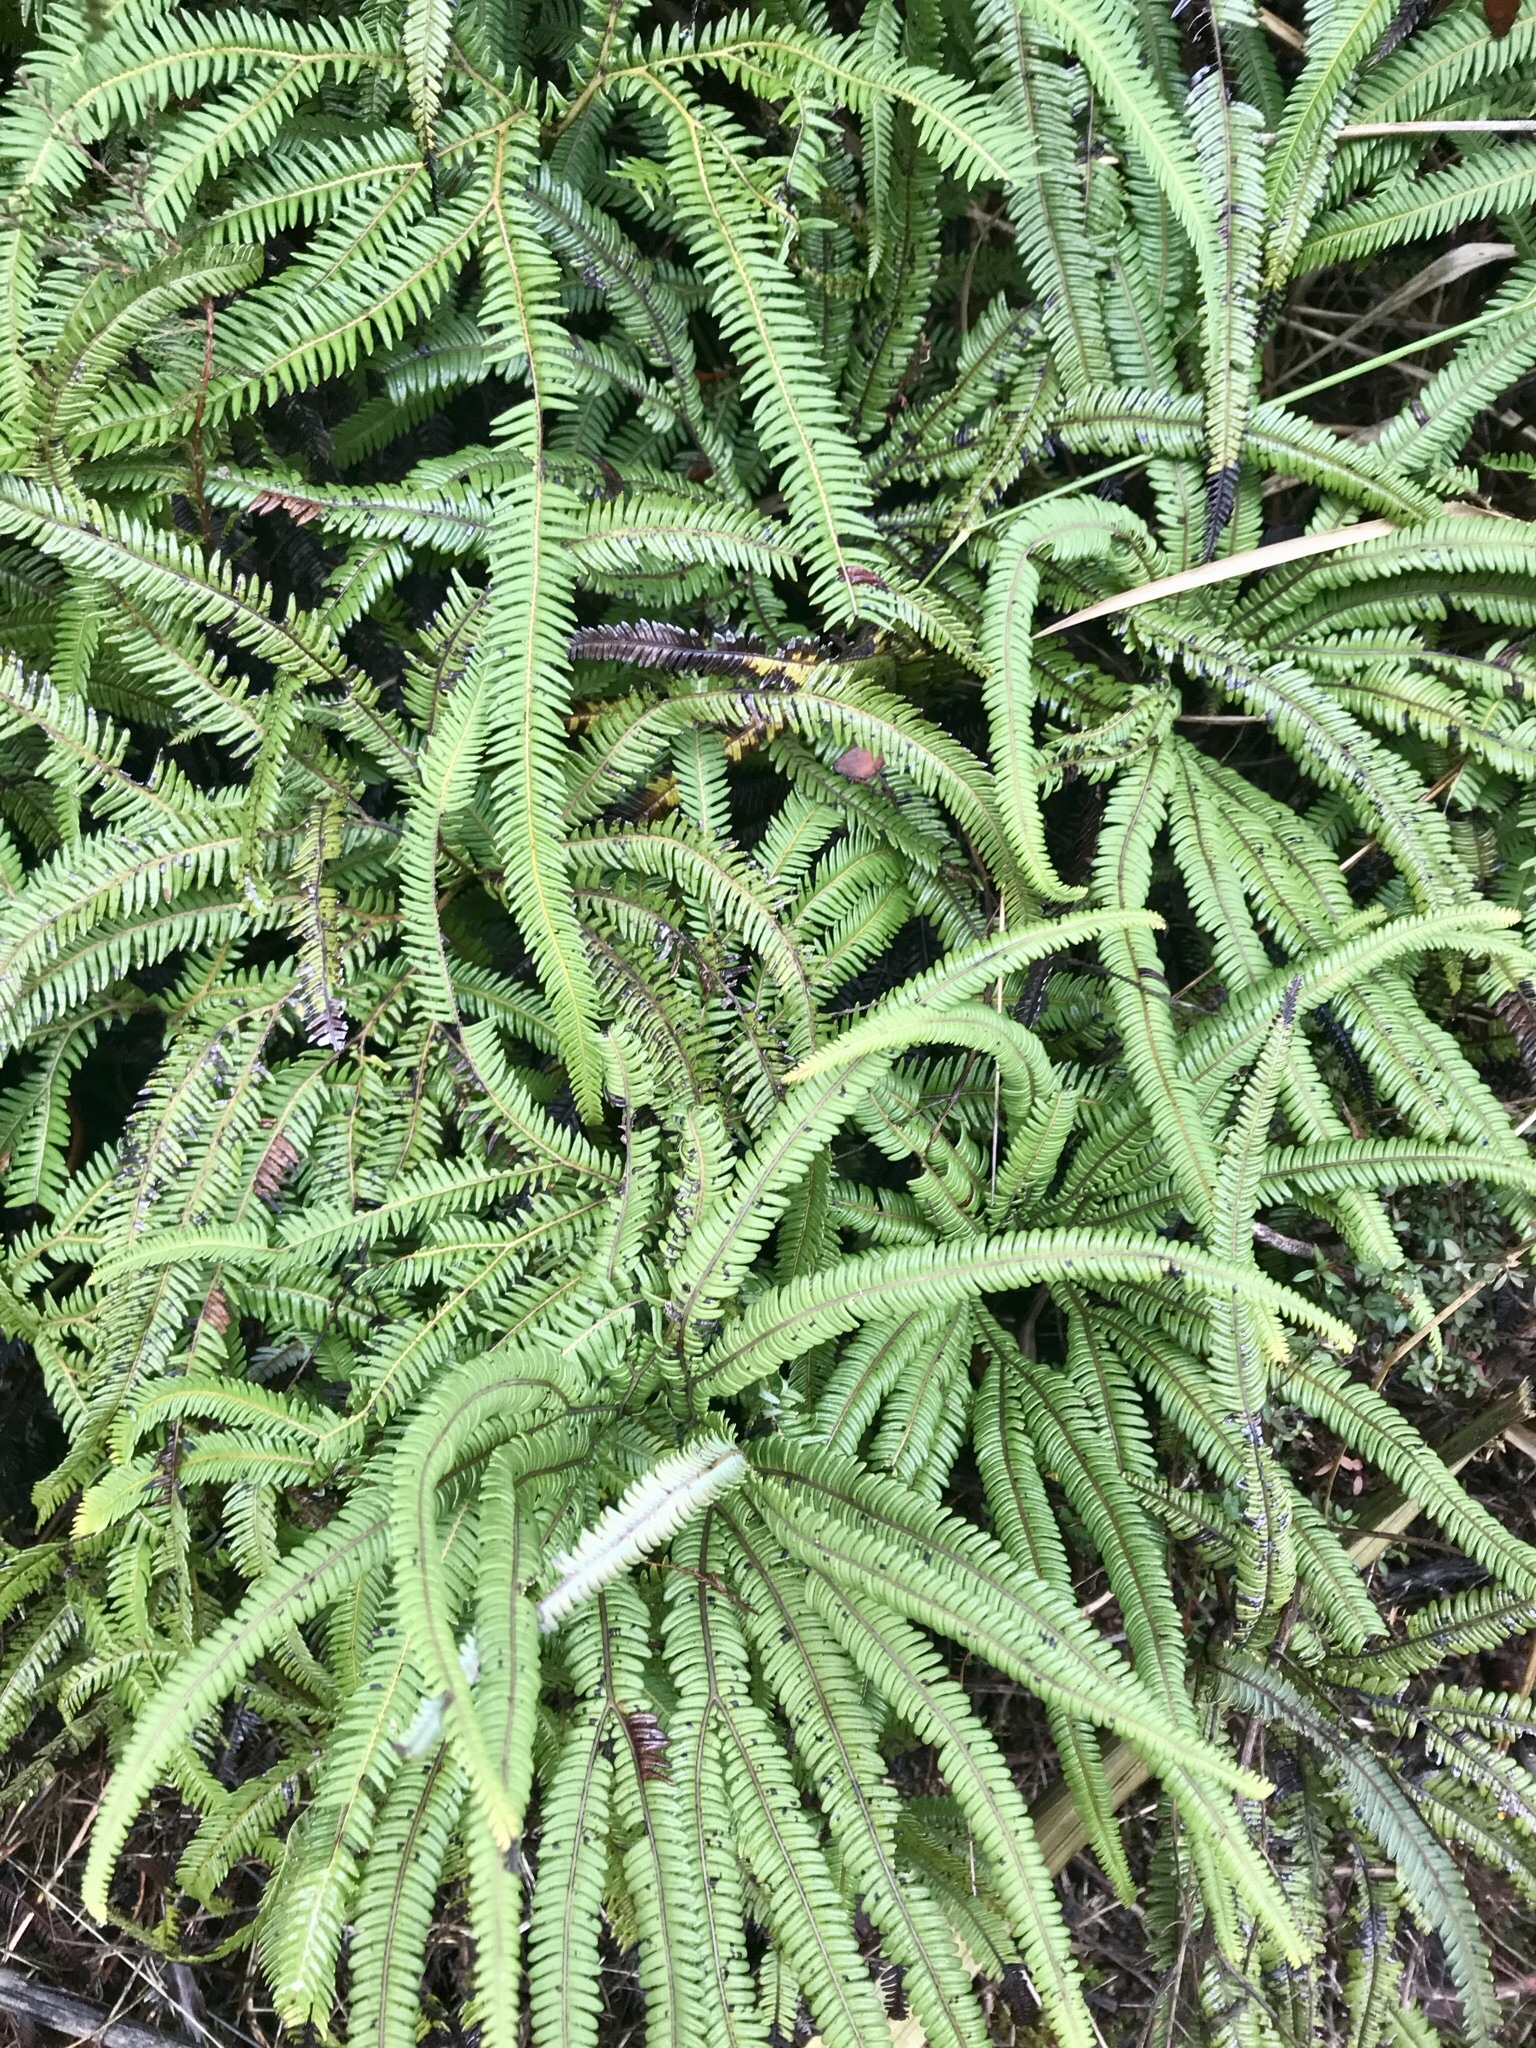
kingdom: Plantae
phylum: Tracheophyta
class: Polypodiopsida
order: Gleicheniales
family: Gleicheniaceae
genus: Sticherus
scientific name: Sticherus cunninghamii
